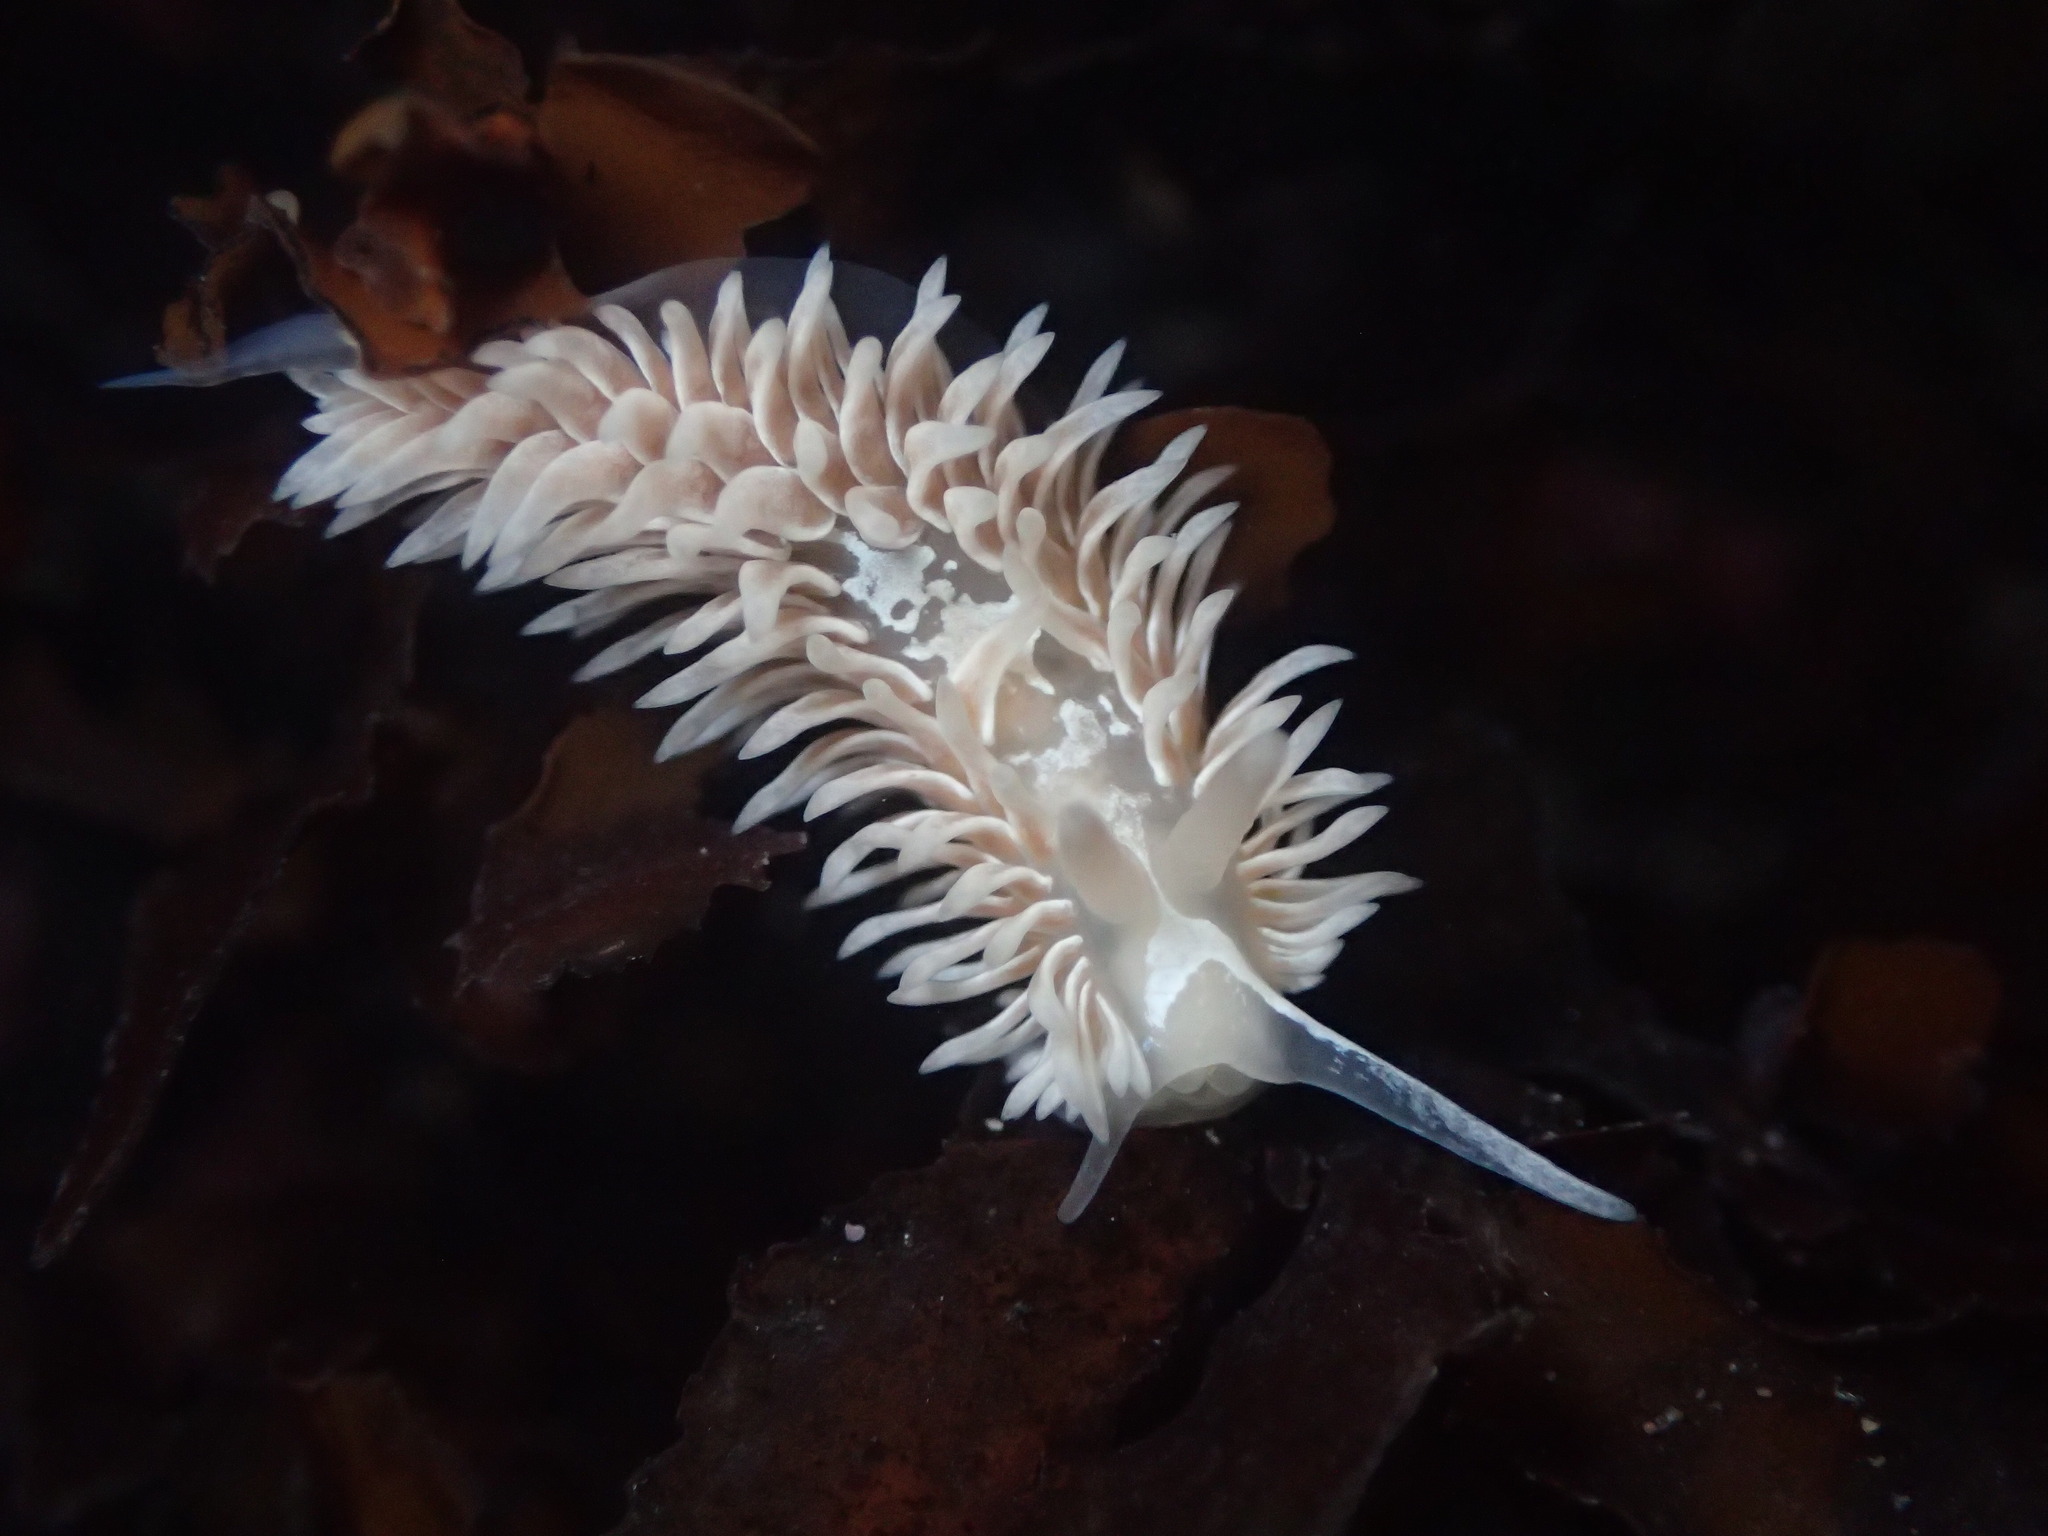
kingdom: Animalia
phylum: Mollusca
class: Gastropoda
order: Nudibranchia
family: Aeolidiidae
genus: Aeolidia
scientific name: Aeolidia loui
